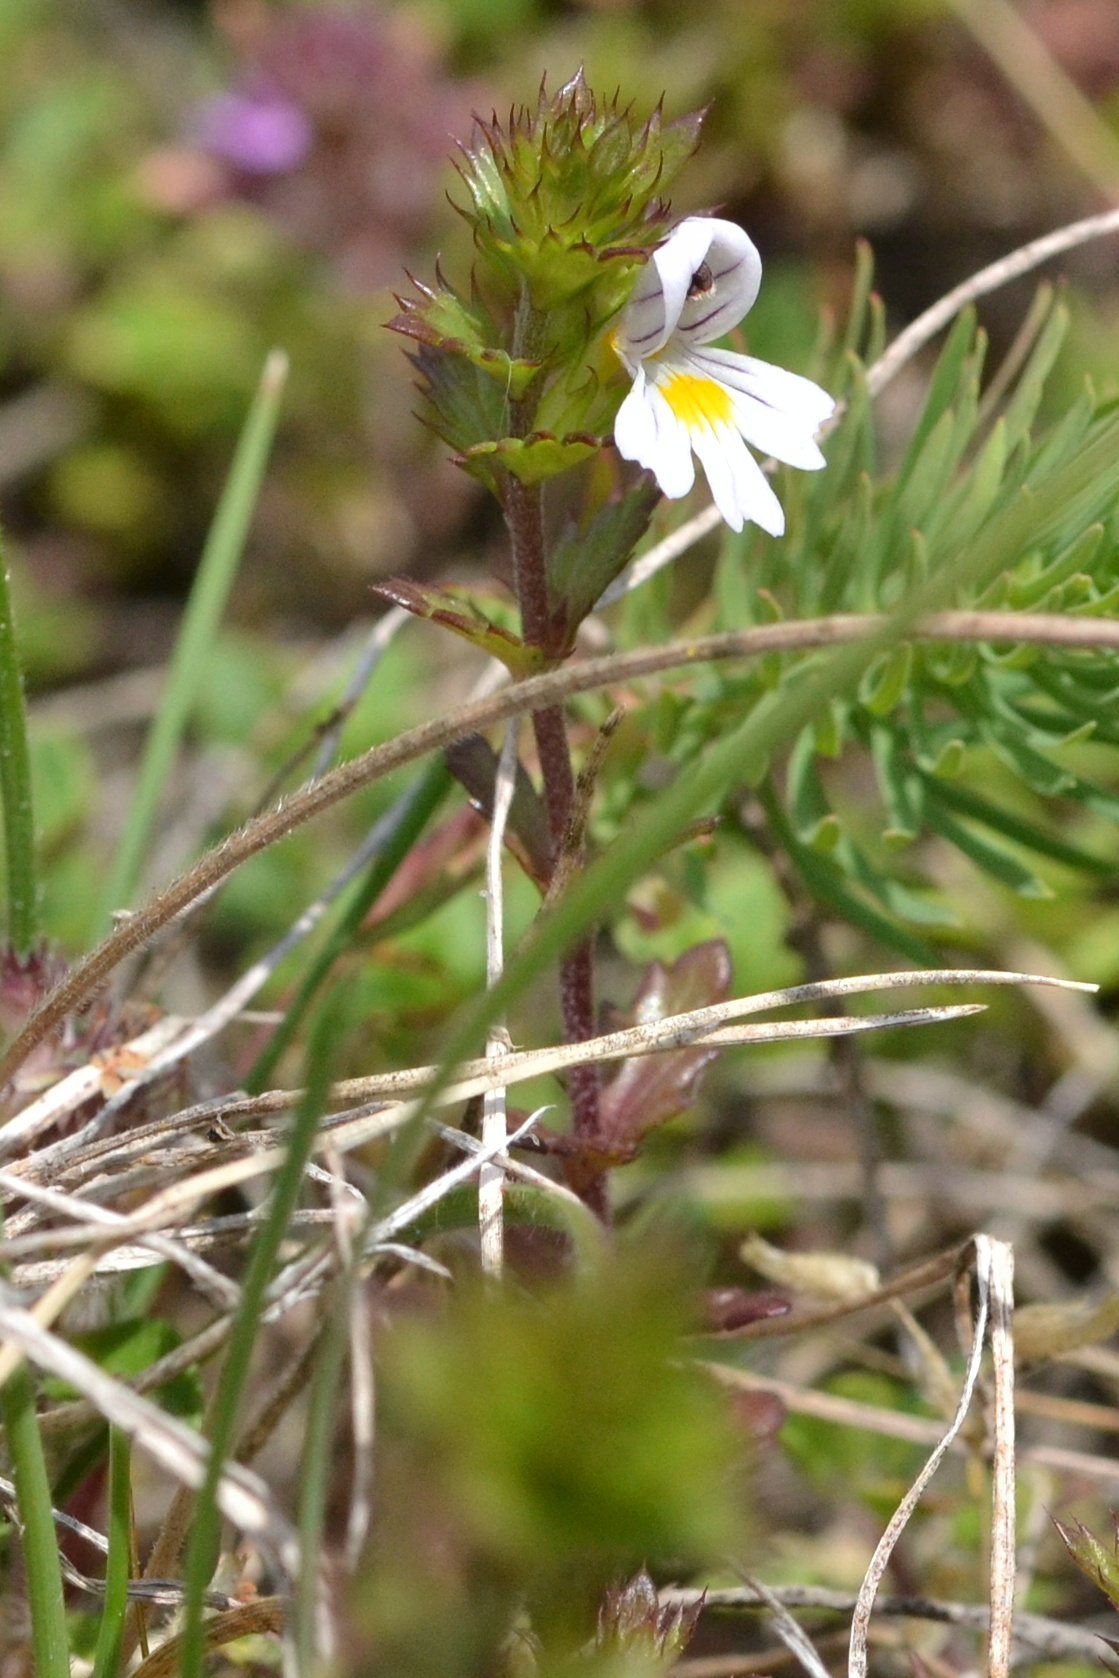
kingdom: Plantae
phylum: Tracheophyta
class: Magnoliopsida
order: Lamiales
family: Orobanchaceae
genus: Euphrasia
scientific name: Euphrasia stricta
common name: Drug eyebright
